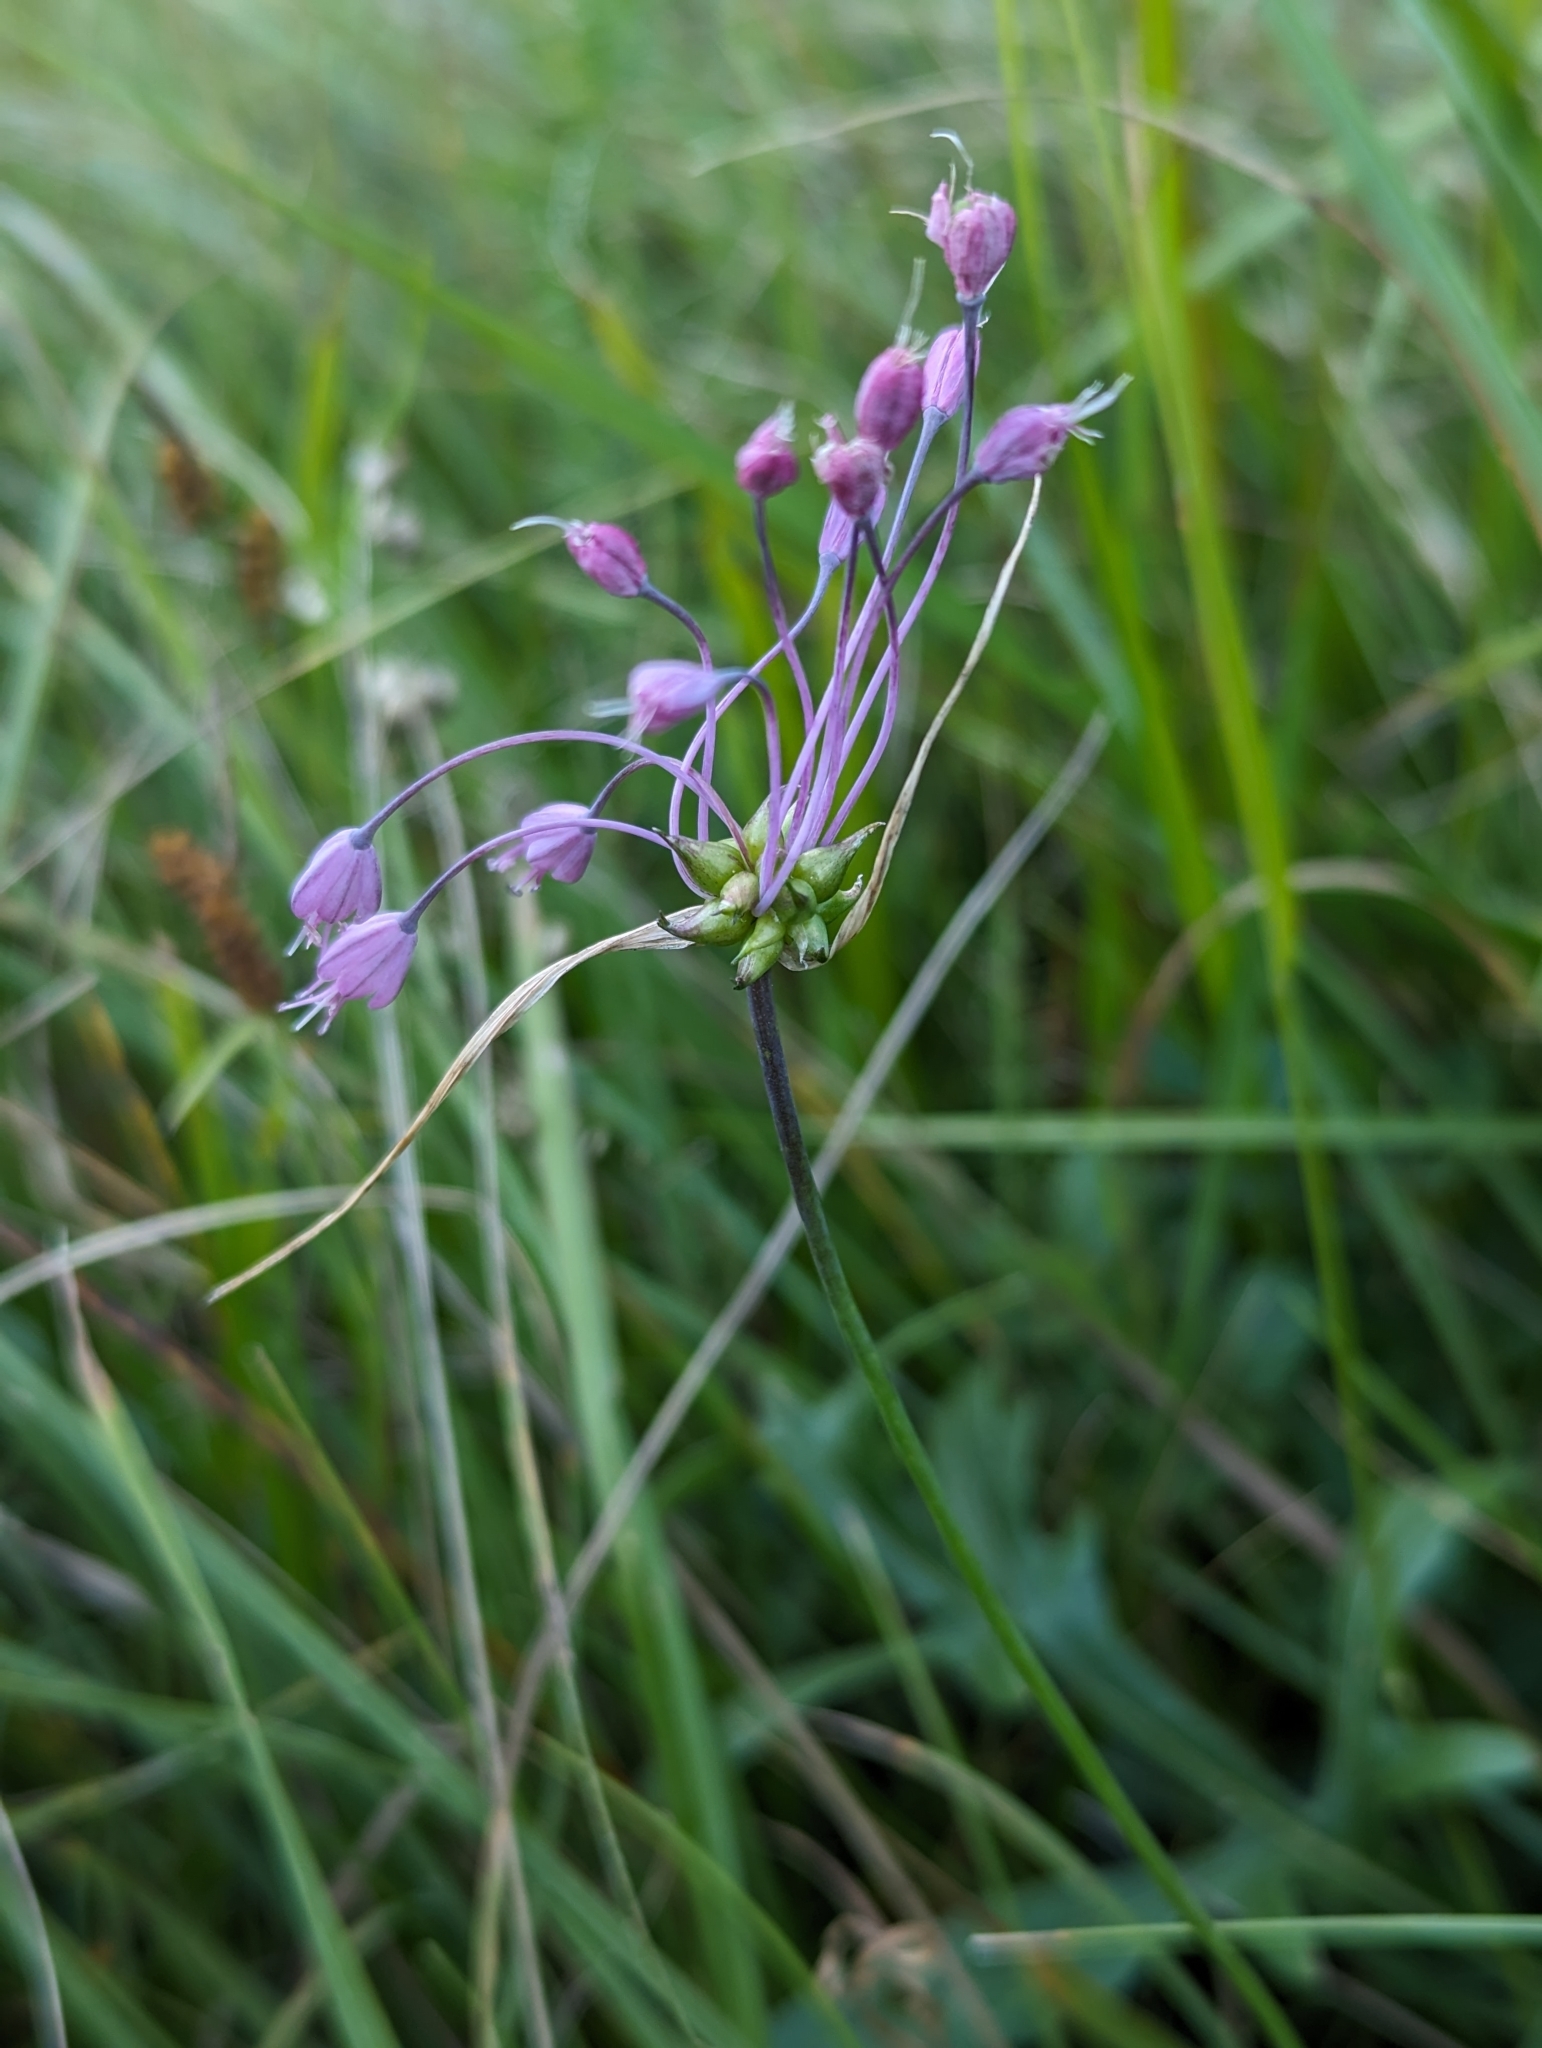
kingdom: Plantae
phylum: Tracheophyta
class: Liliopsida
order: Asparagales
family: Amaryllidaceae
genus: Allium
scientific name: Allium carinatum
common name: Keeled garlic
